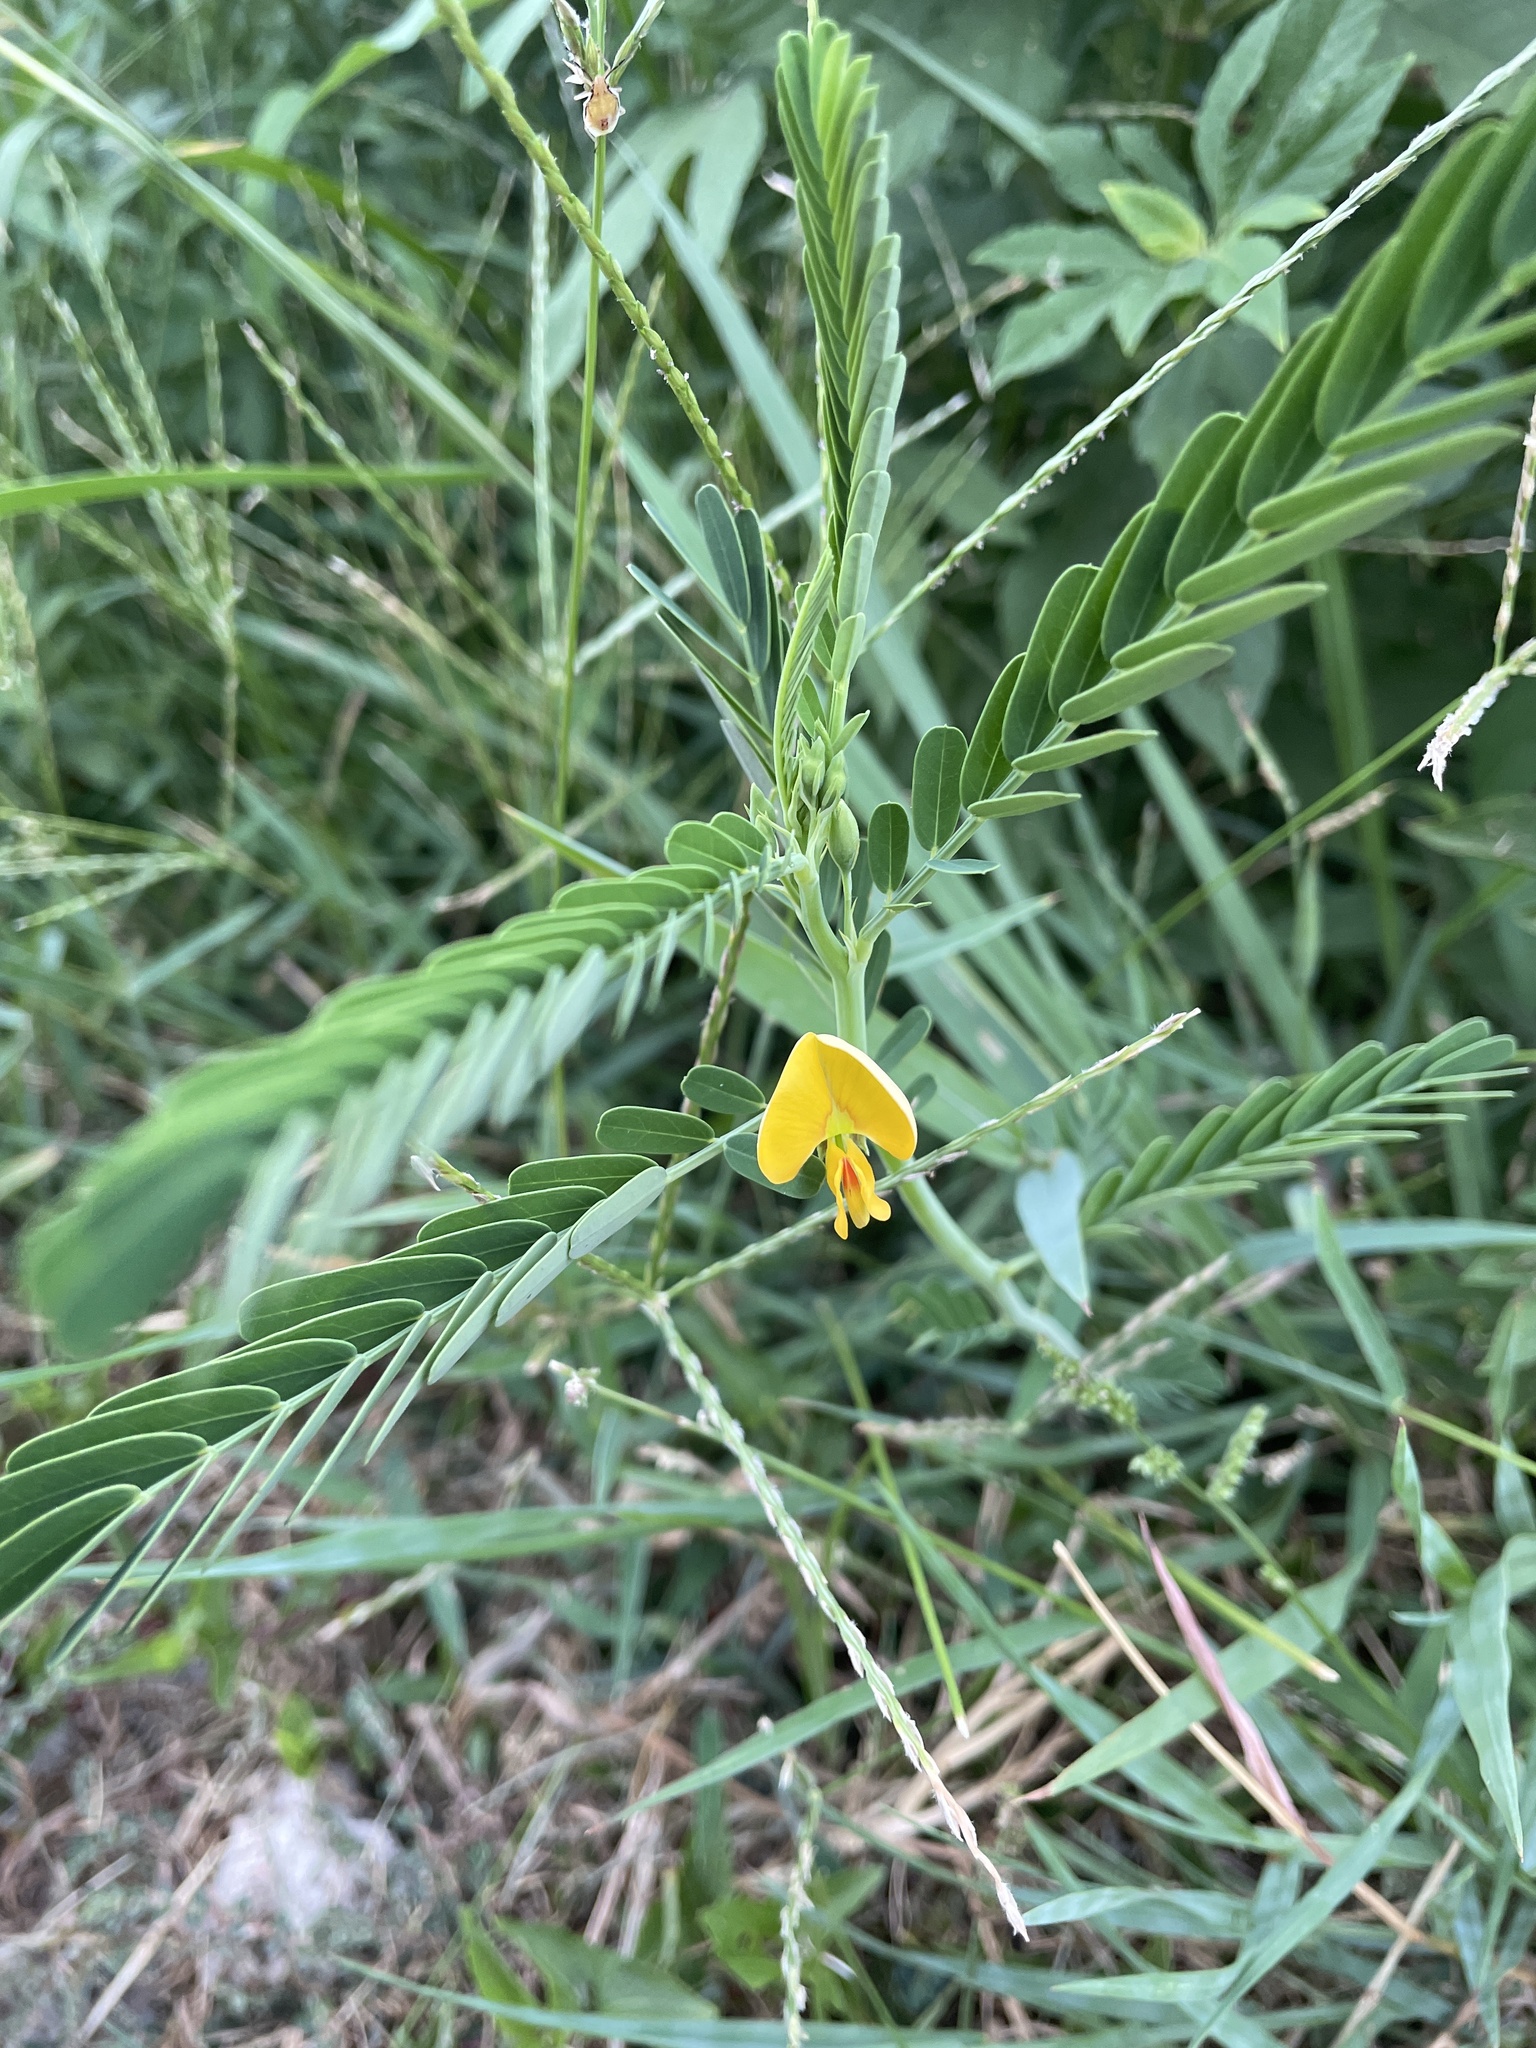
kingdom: Plantae
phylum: Tracheophyta
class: Magnoliopsida
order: Fabales
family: Fabaceae
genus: Sesbania
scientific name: Sesbania herbacea
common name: Bigpod sesbania
